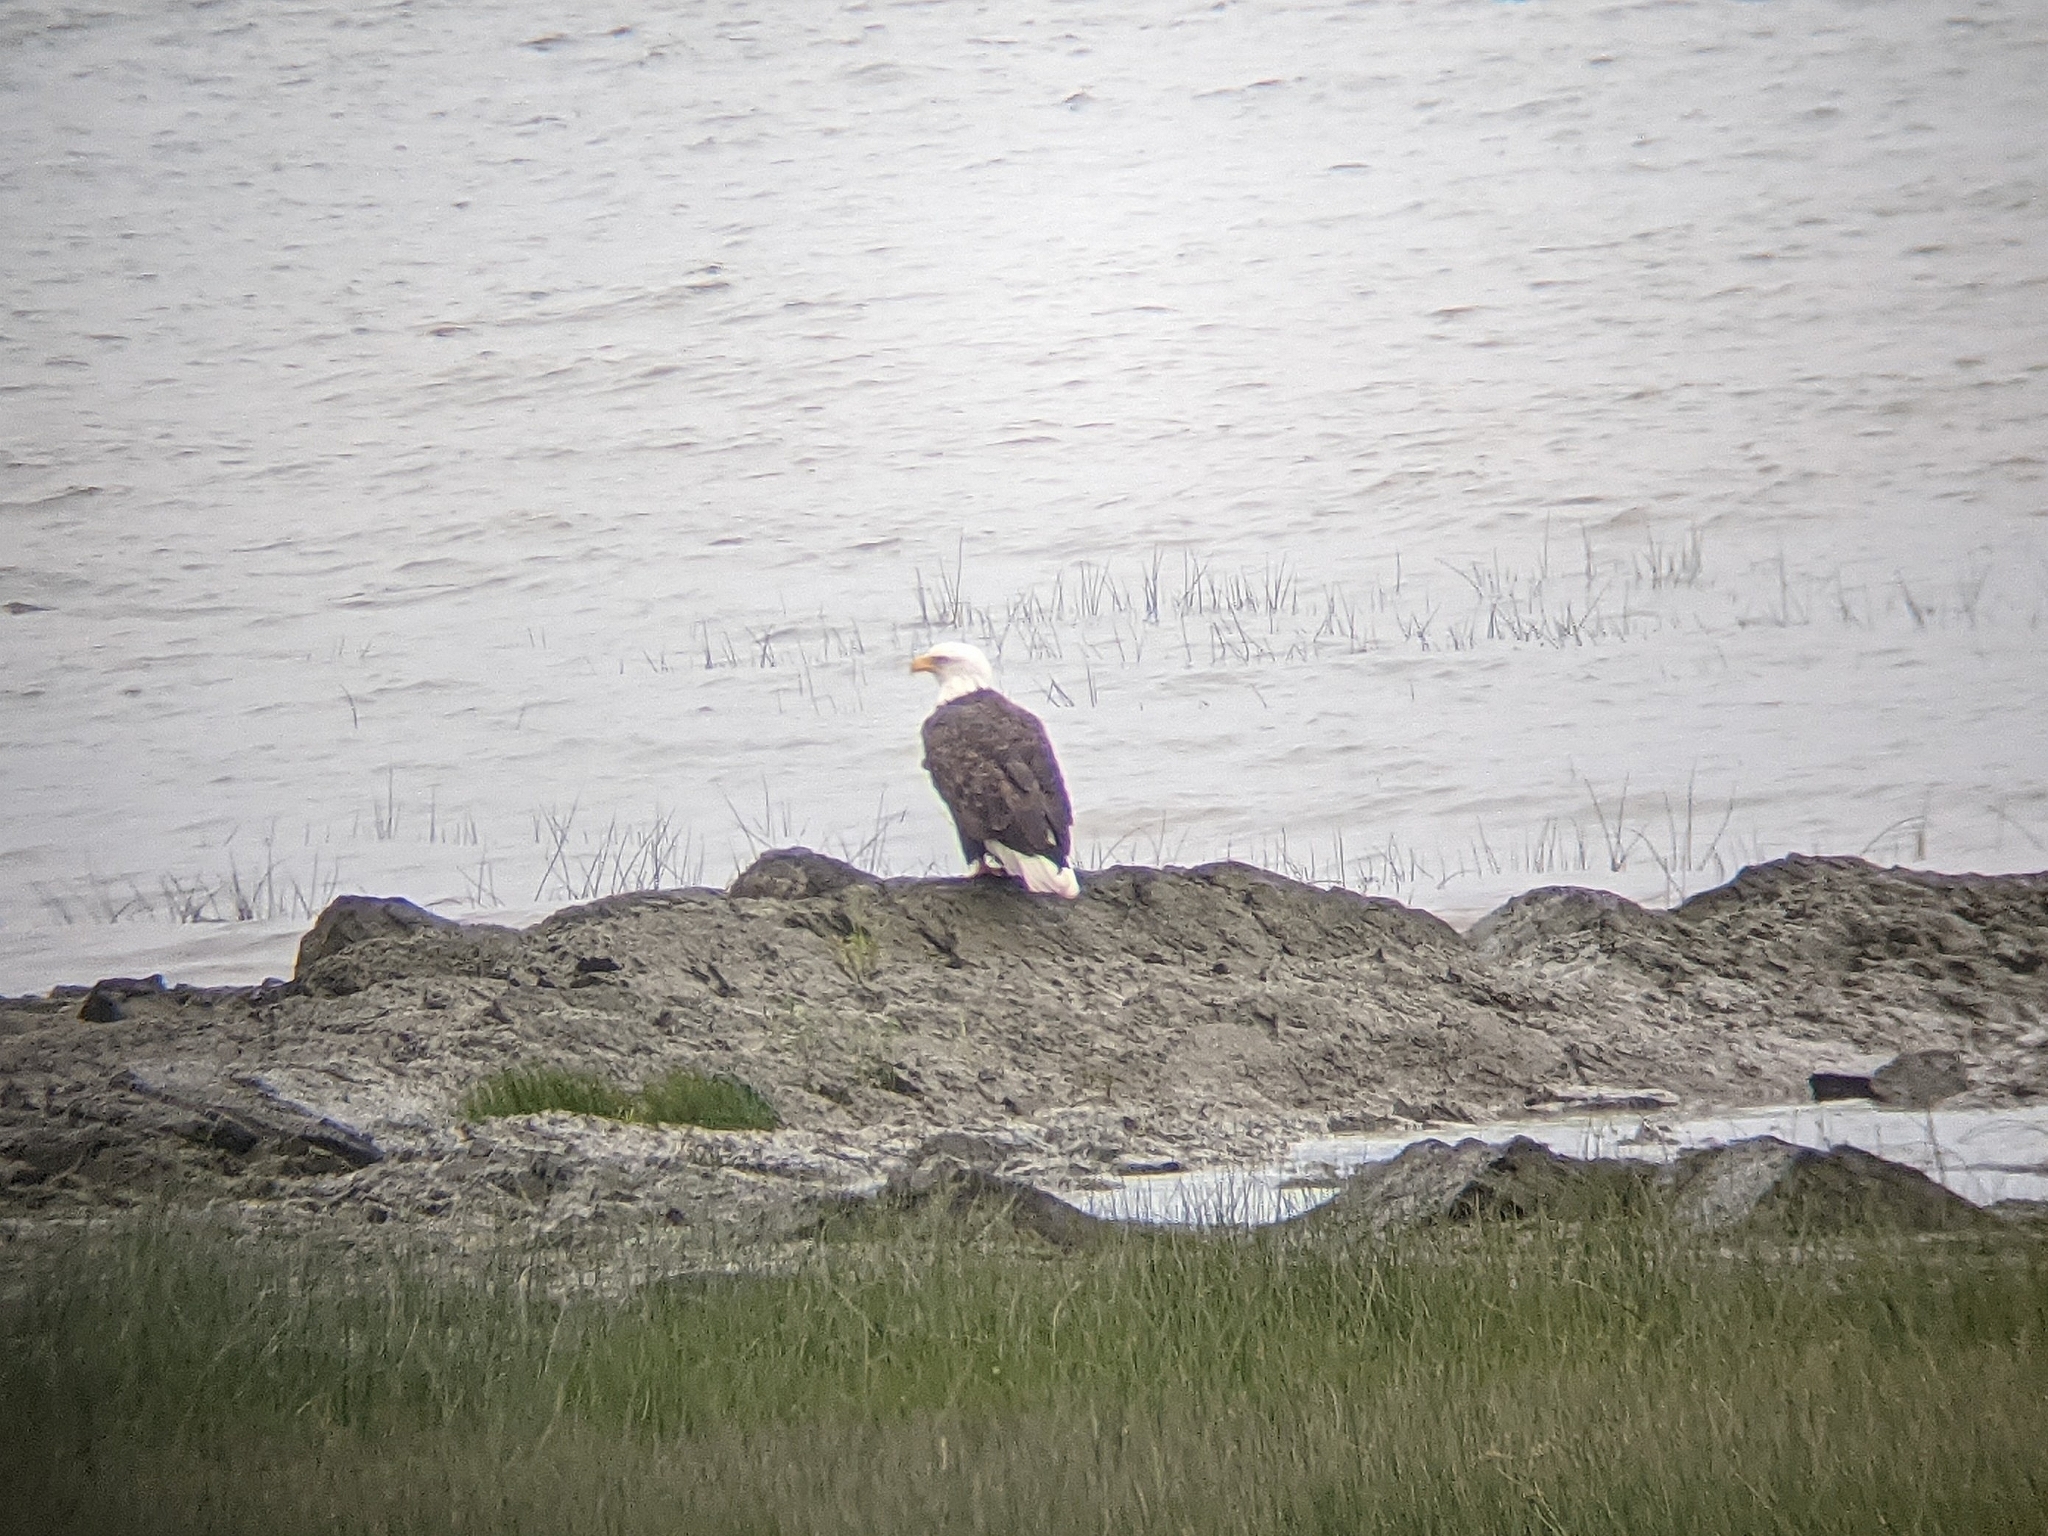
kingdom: Animalia
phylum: Chordata
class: Aves
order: Accipitriformes
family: Accipitridae
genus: Haliaeetus
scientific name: Haliaeetus leucocephalus
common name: Bald eagle
